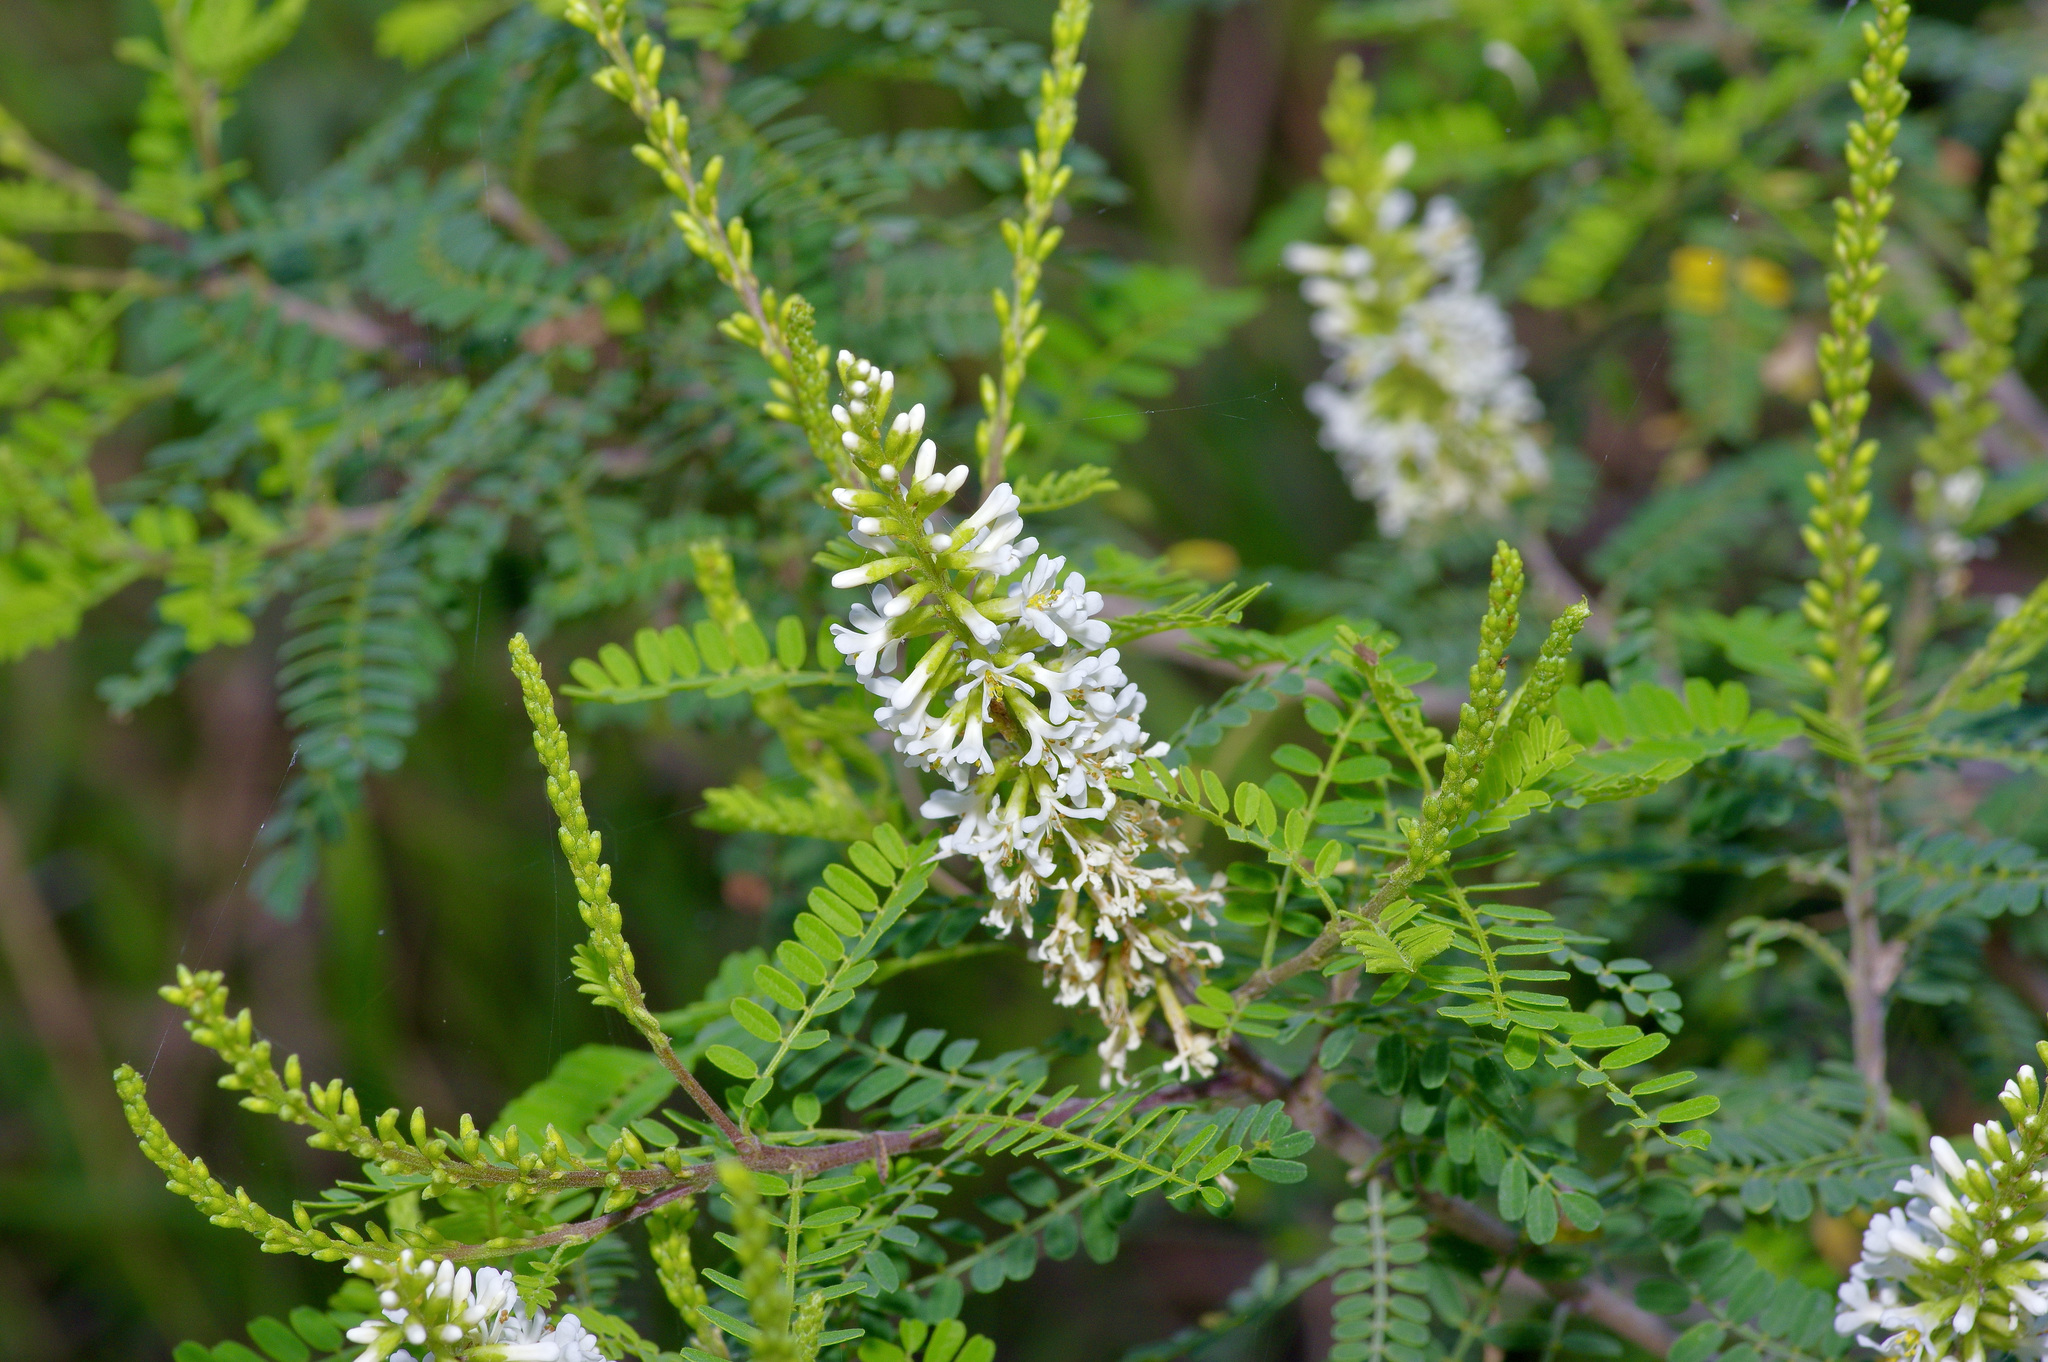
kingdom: Plantae
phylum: Tracheophyta
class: Magnoliopsida
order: Fabales
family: Fabaceae
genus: Eysenhardtia
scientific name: Eysenhardtia texana
